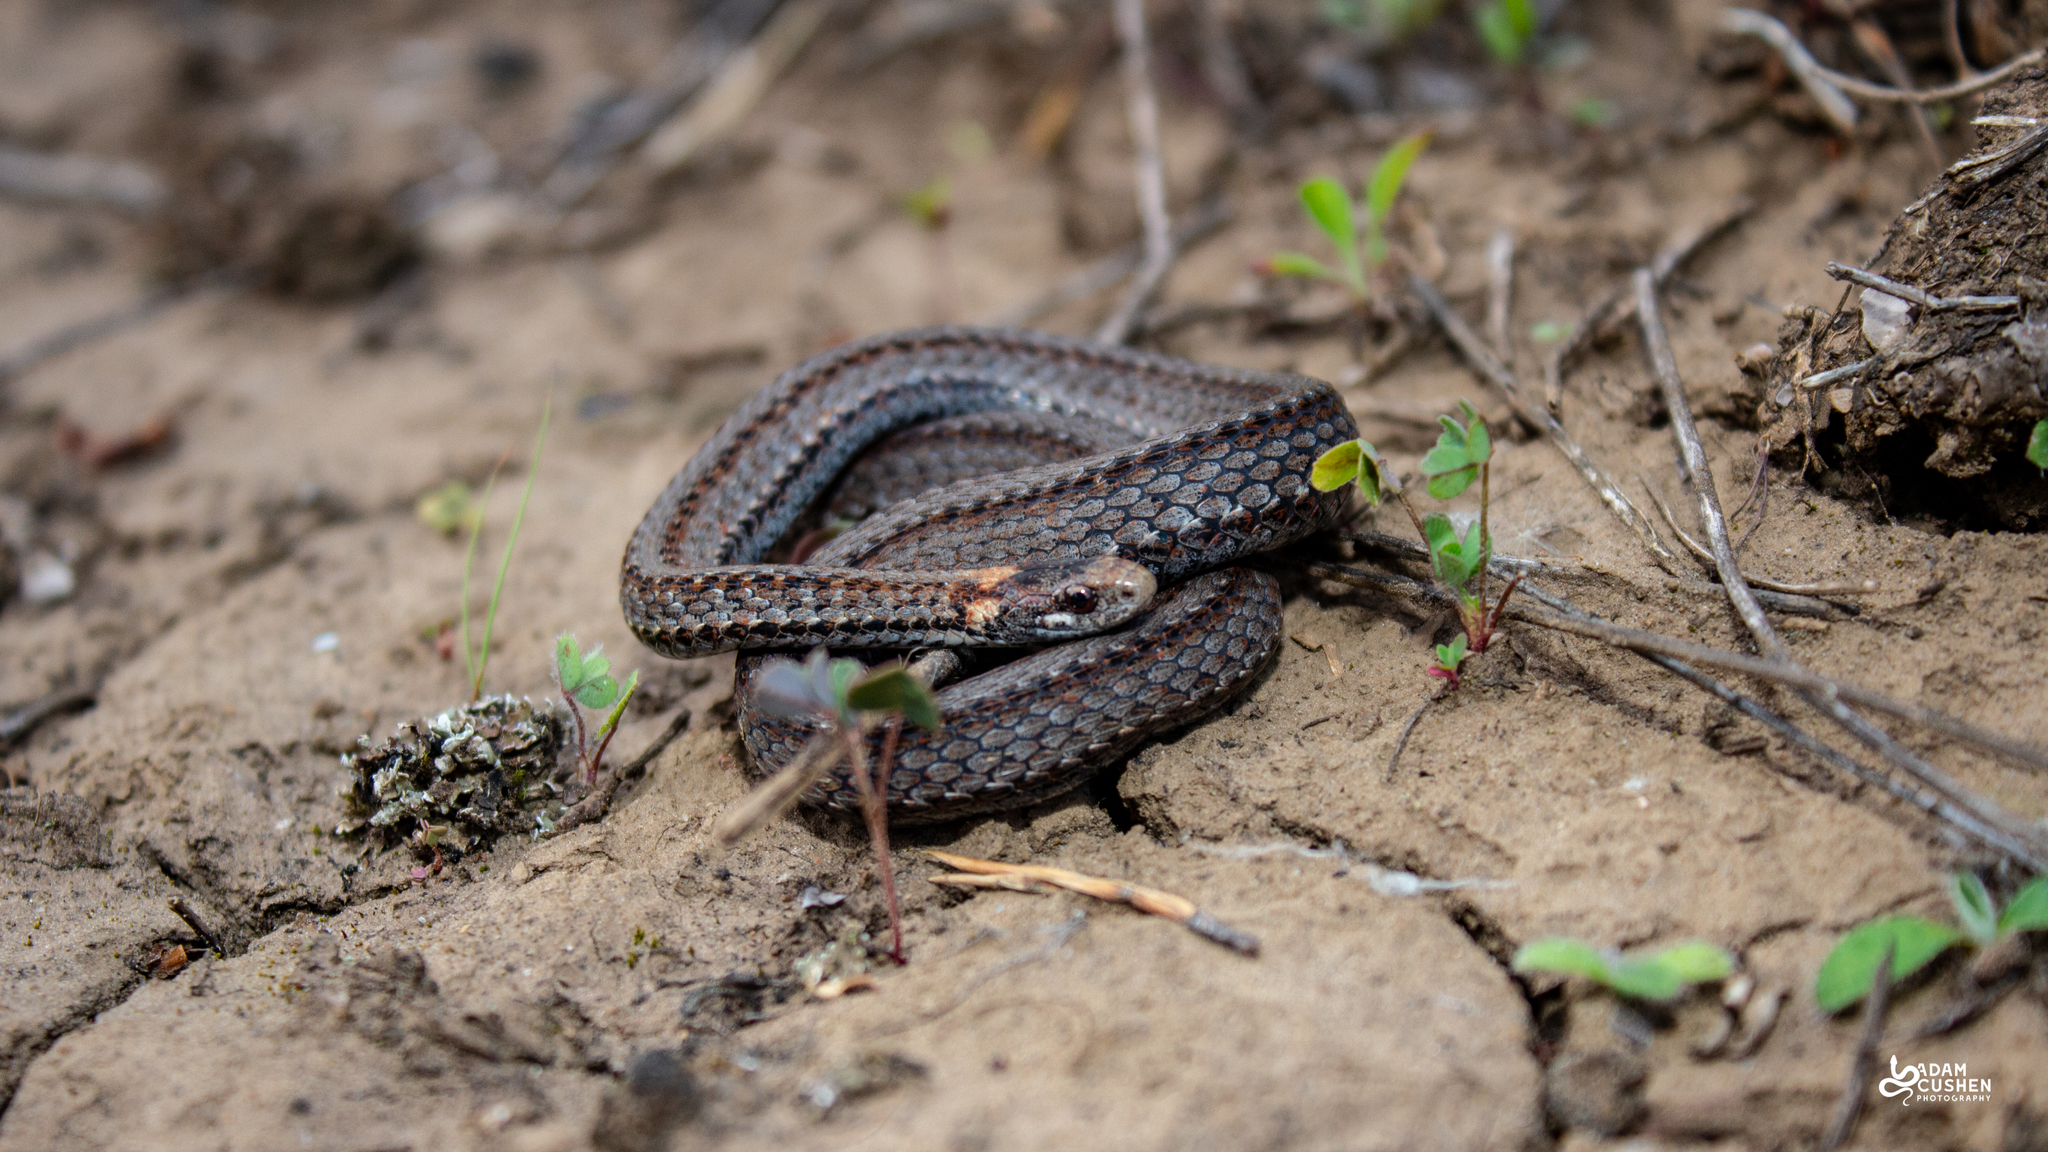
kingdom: Animalia
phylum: Chordata
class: Squamata
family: Colubridae
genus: Storeria
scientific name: Storeria occipitomaculata
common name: Redbelly snake
